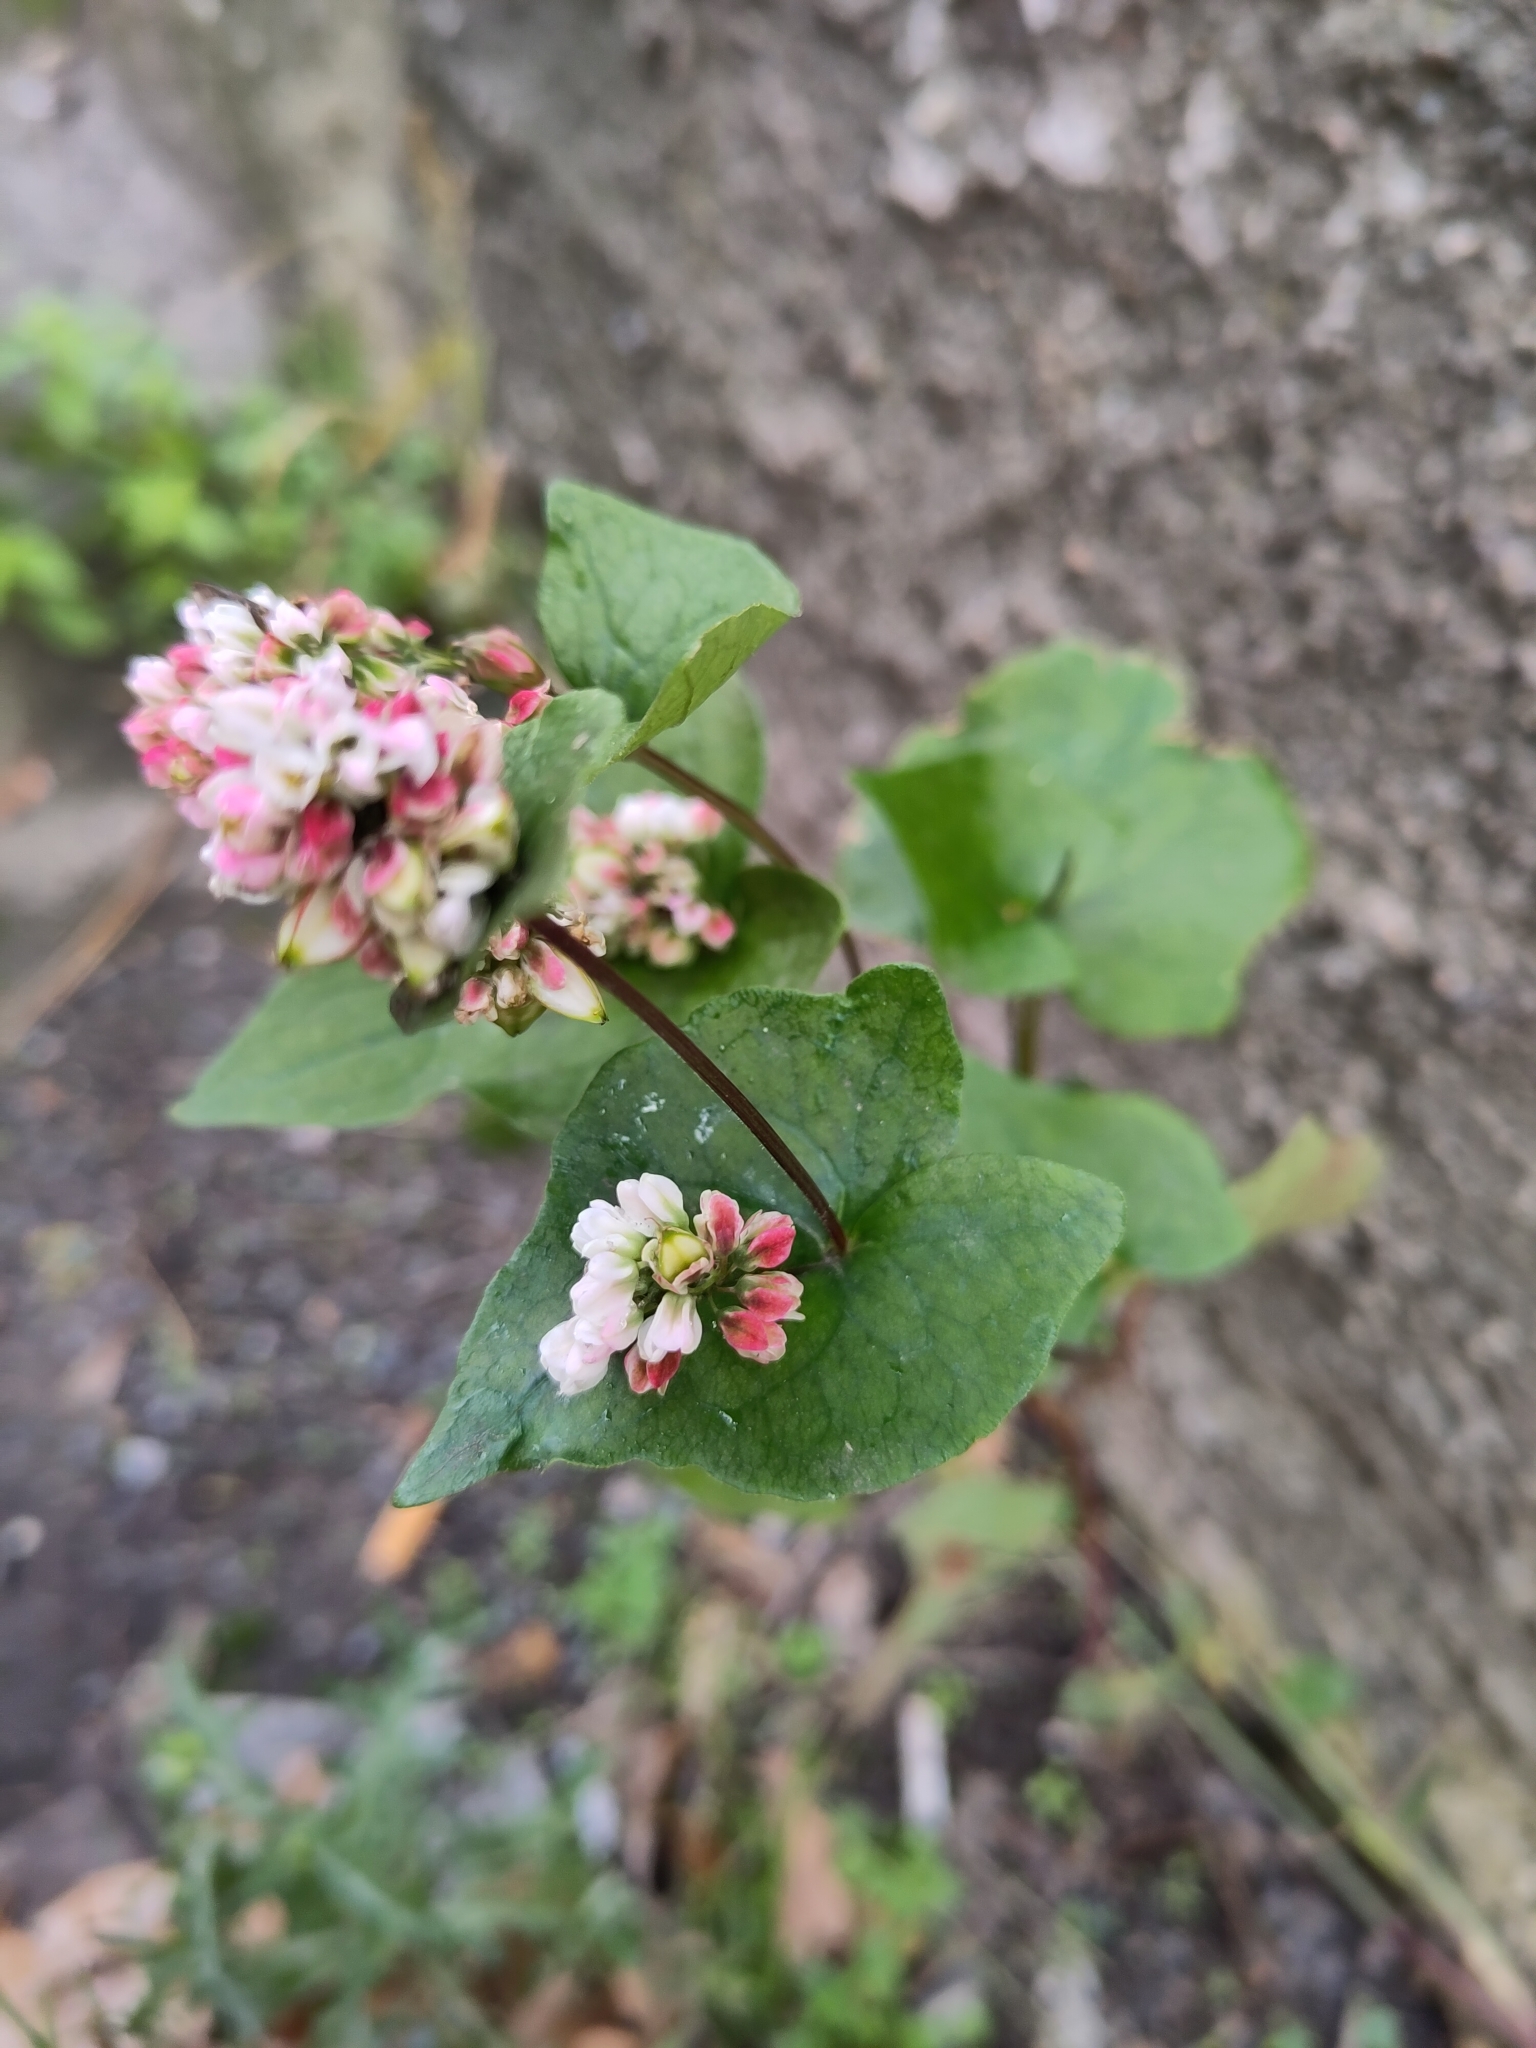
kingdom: Plantae
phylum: Tracheophyta
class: Magnoliopsida
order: Caryophyllales
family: Polygonaceae
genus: Fagopyrum
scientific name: Fagopyrum esculentum
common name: Buckwheat
